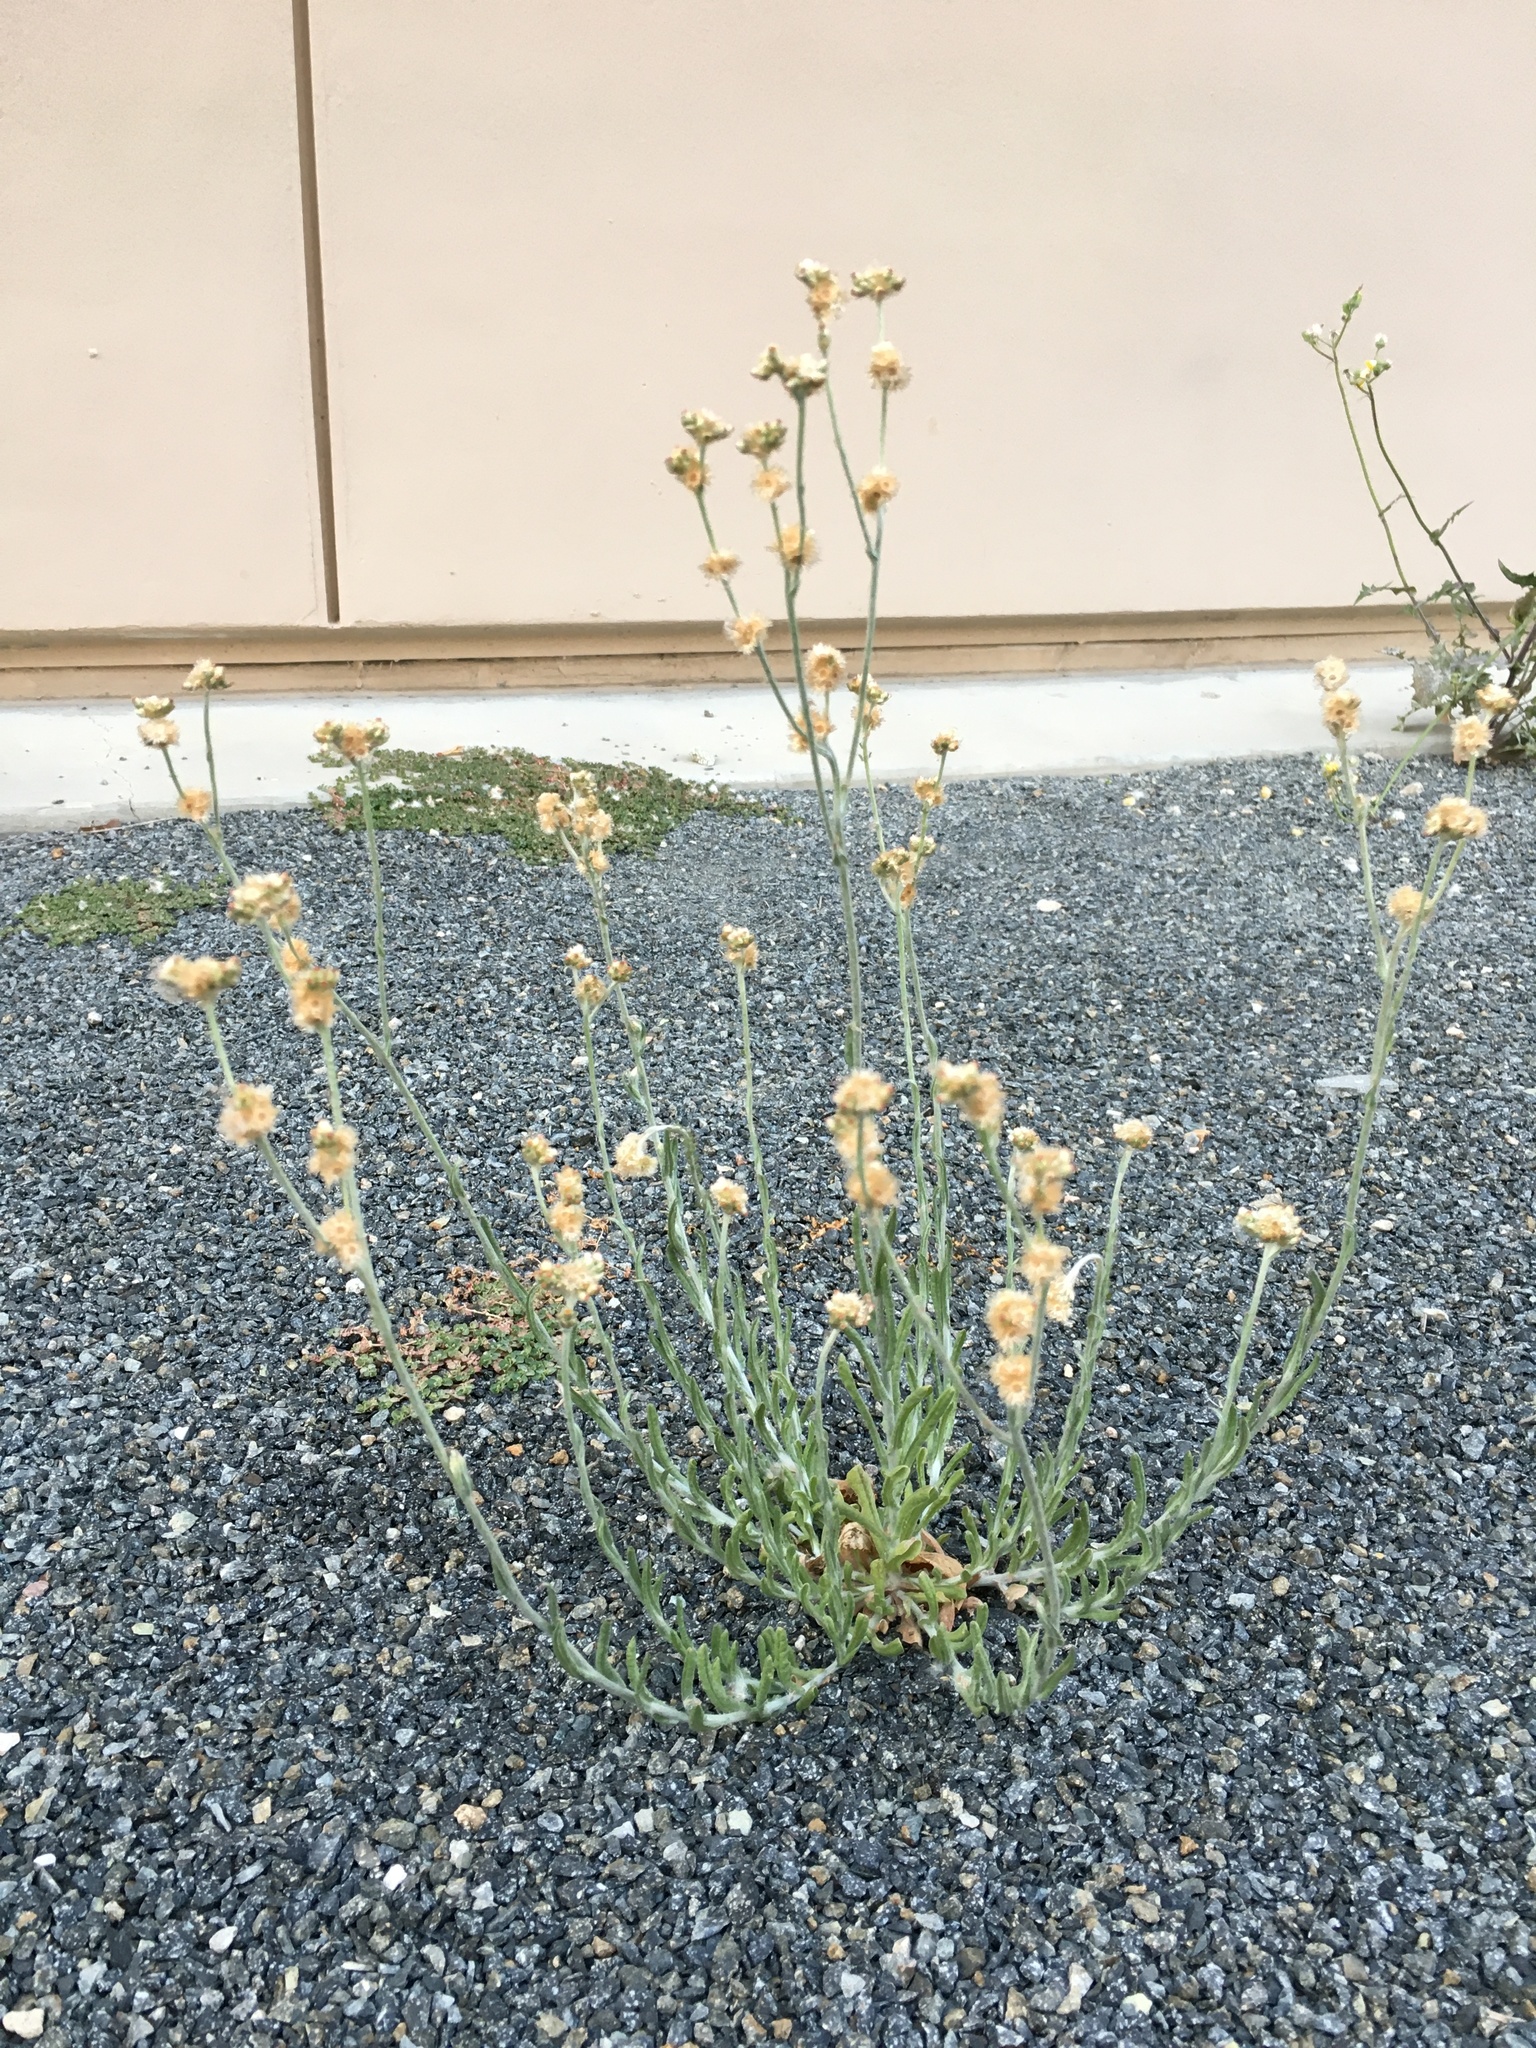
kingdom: Plantae
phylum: Tracheophyta
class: Magnoliopsida
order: Asterales
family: Asteraceae
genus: Helichrysum
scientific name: Helichrysum luteoalbum
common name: Daisy
